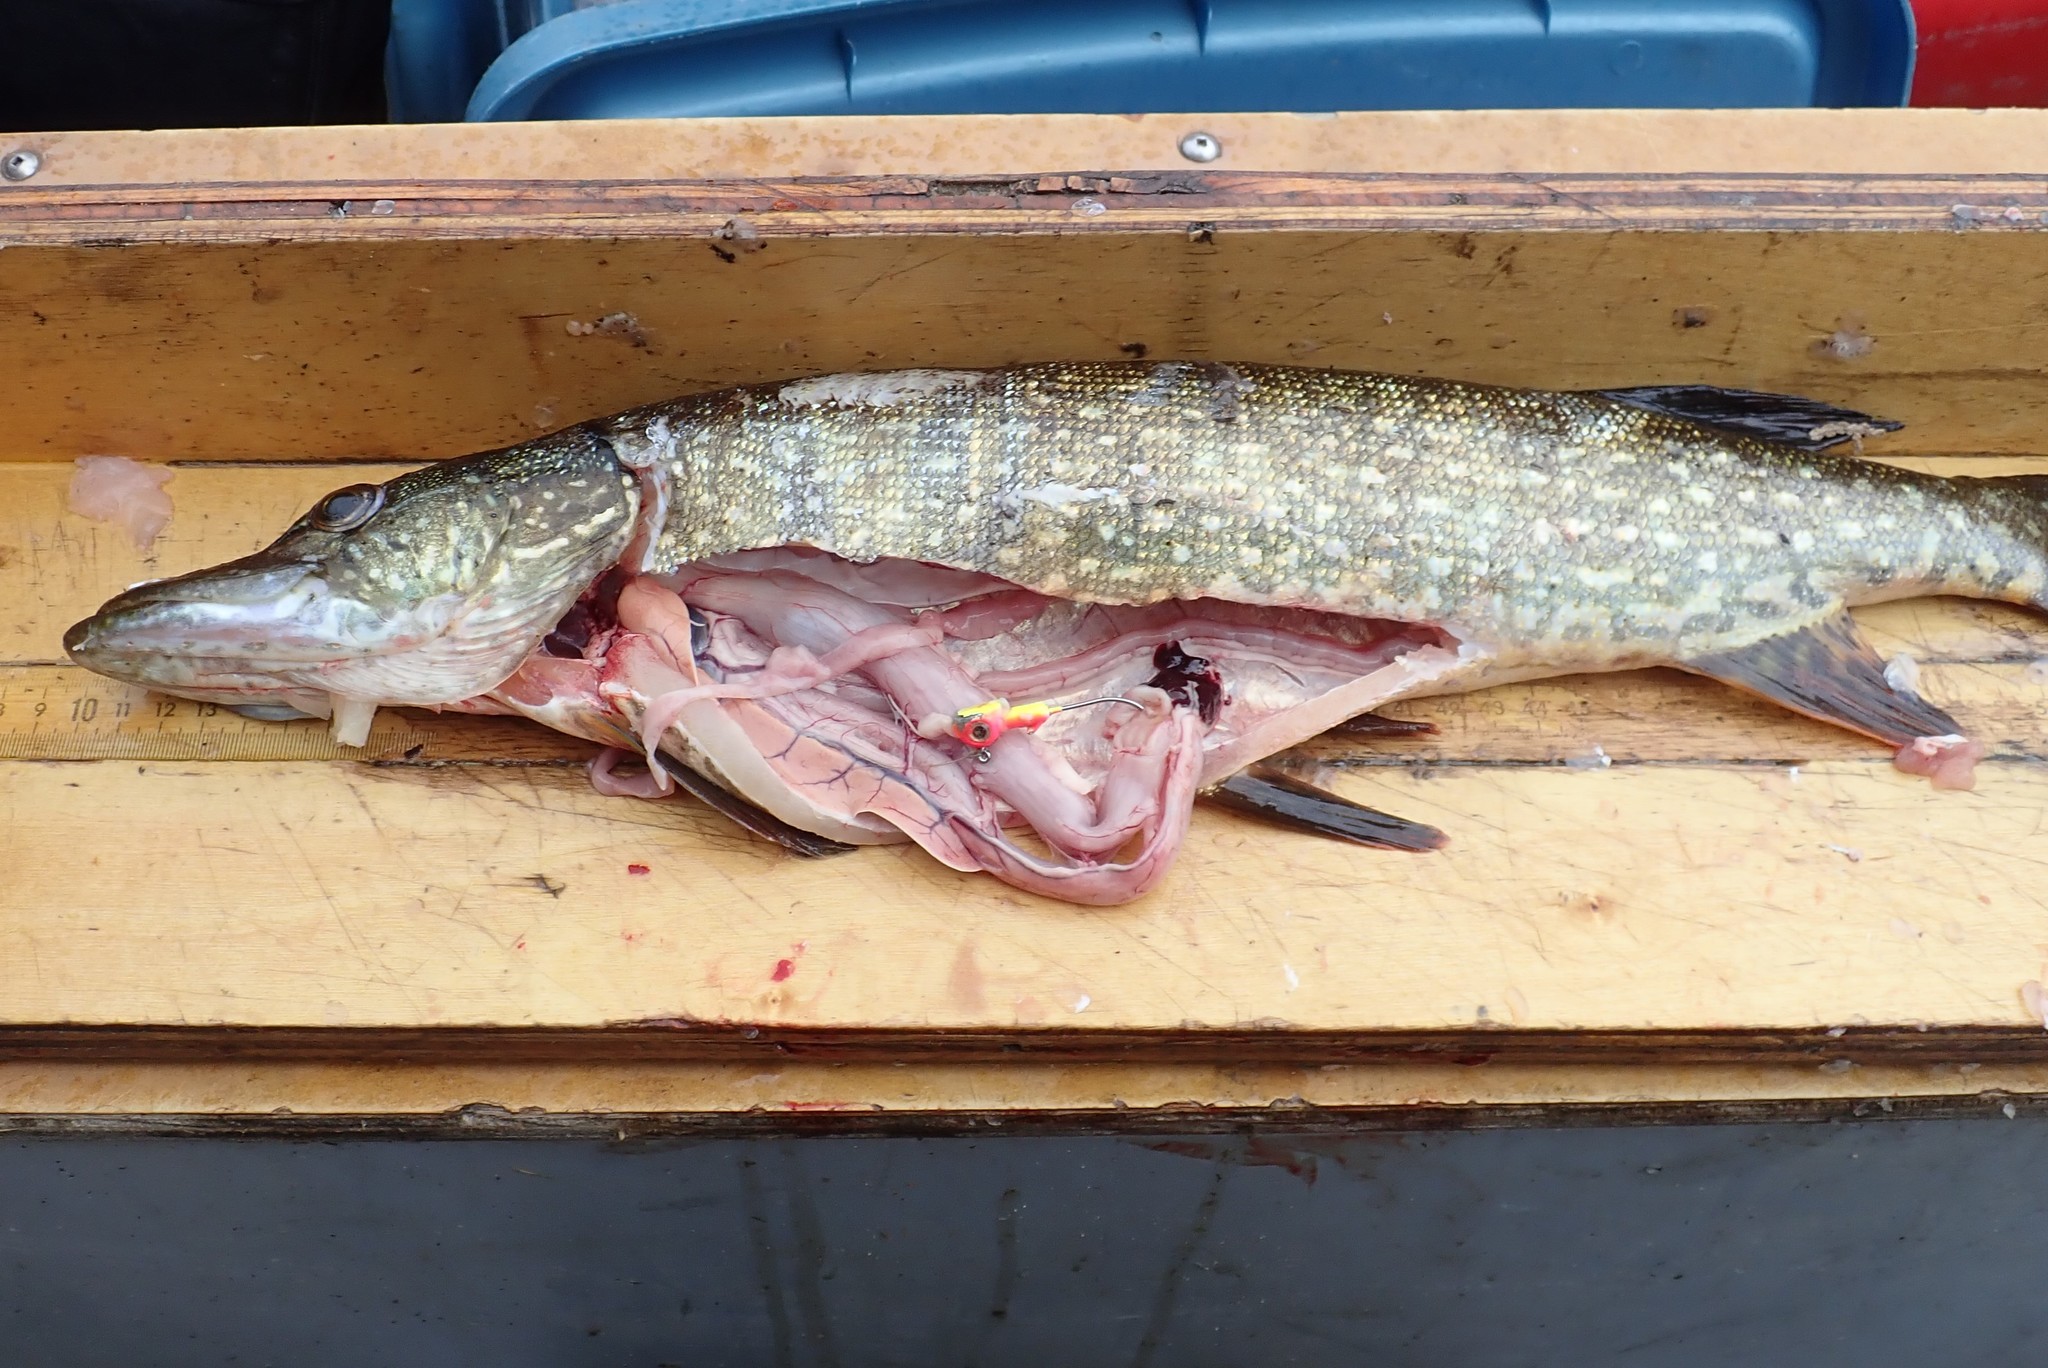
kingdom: Animalia
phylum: Chordata
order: Esociformes
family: Esocidae
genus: Esox
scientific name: Esox lucius
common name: Northern pike
